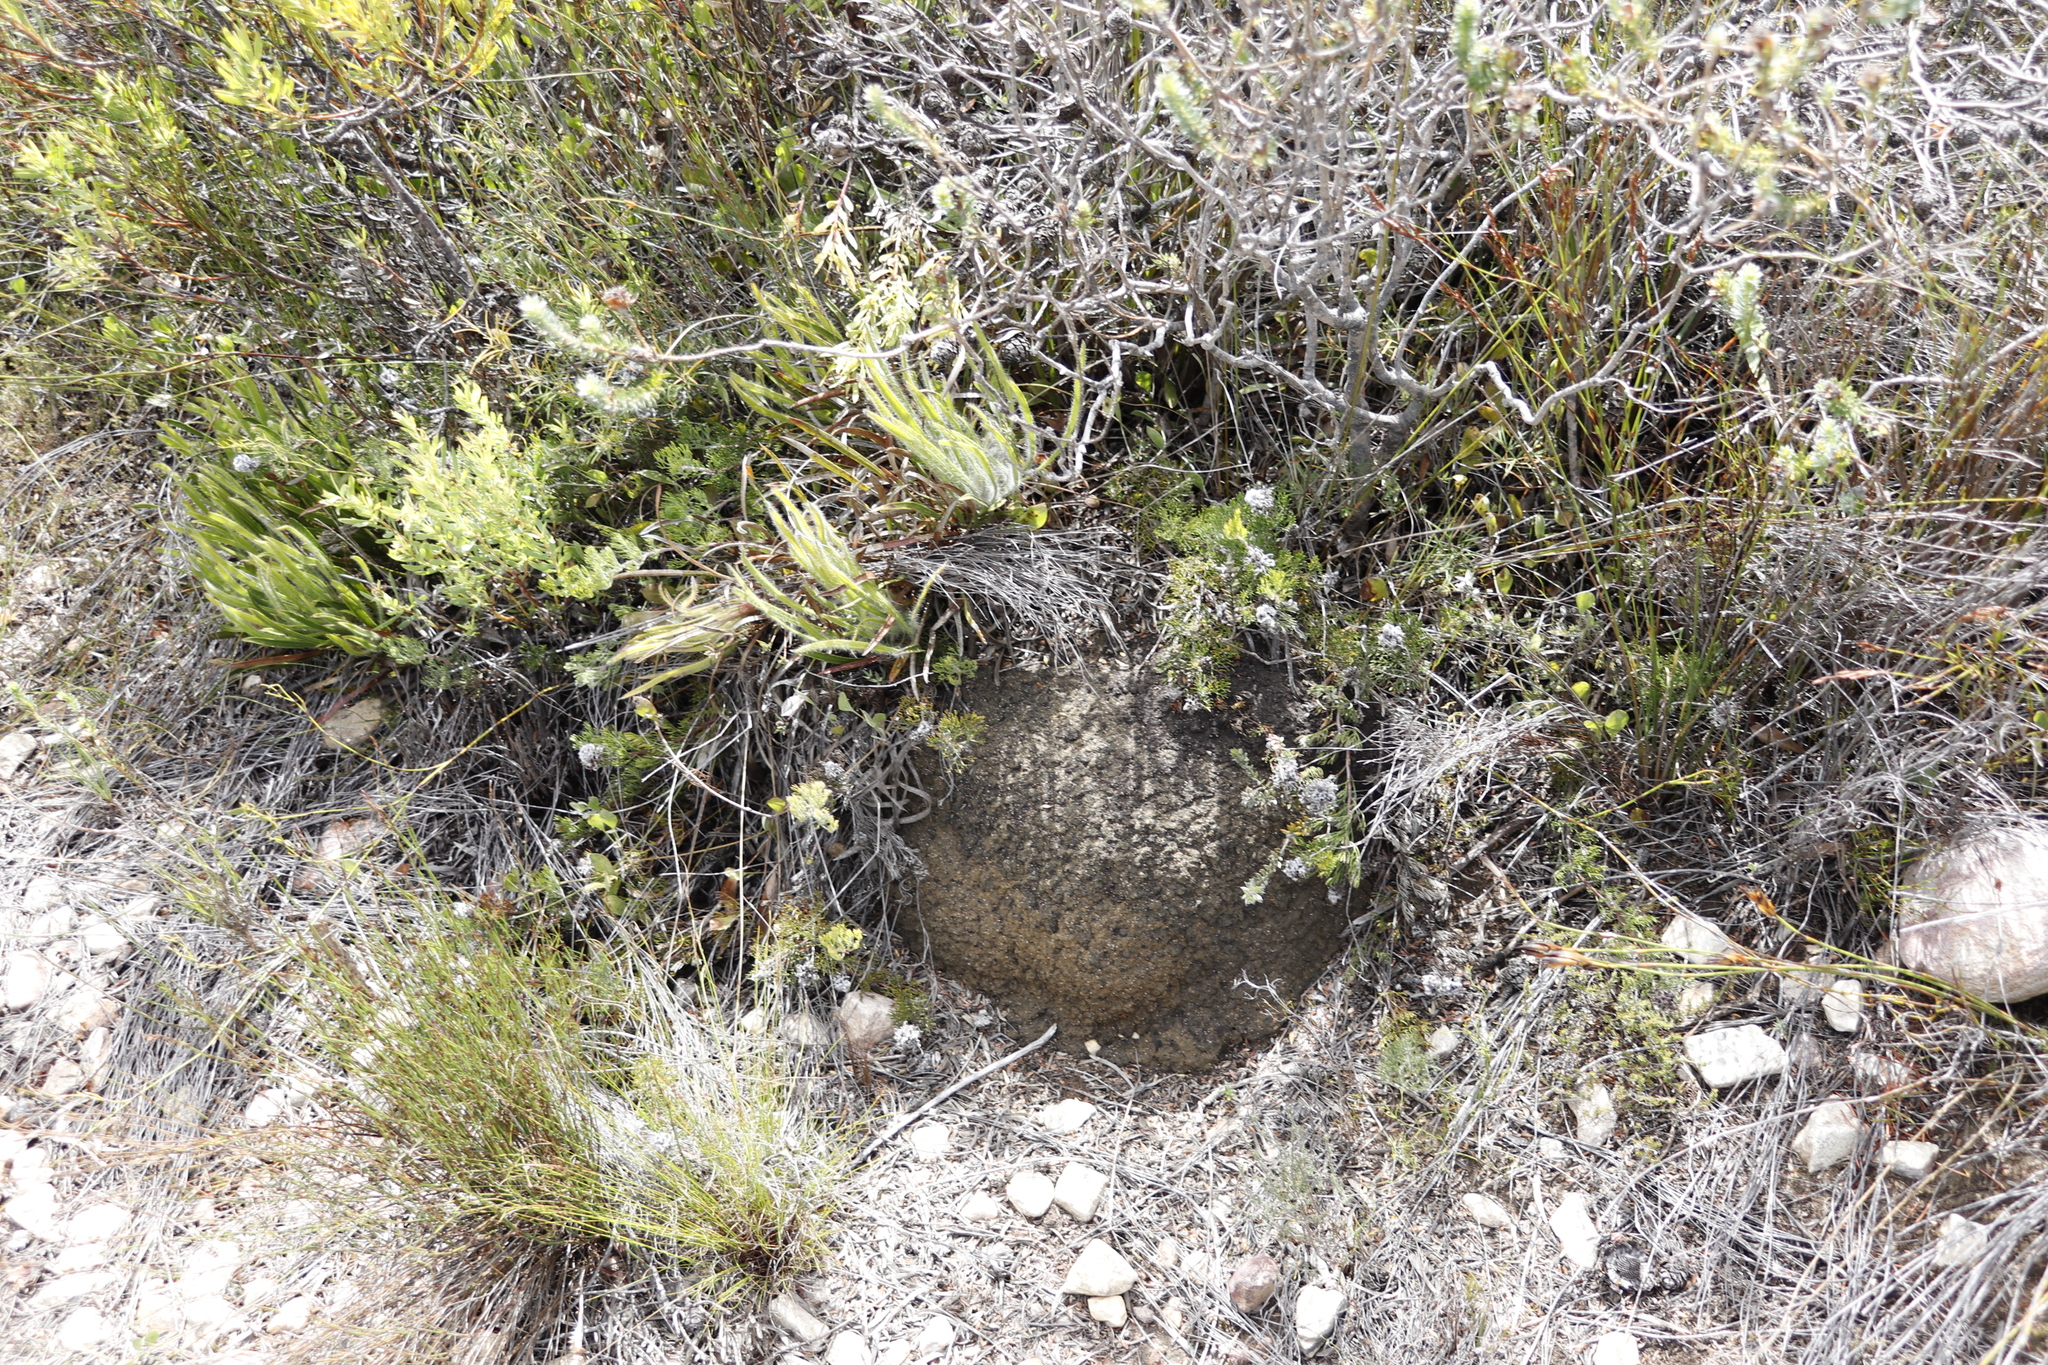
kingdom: Plantae
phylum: Tracheophyta
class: Magnoliopsida
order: Proteales
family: Proteaceae
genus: Protea
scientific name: Protea denticulata
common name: Tooth-leaf sugarbush
